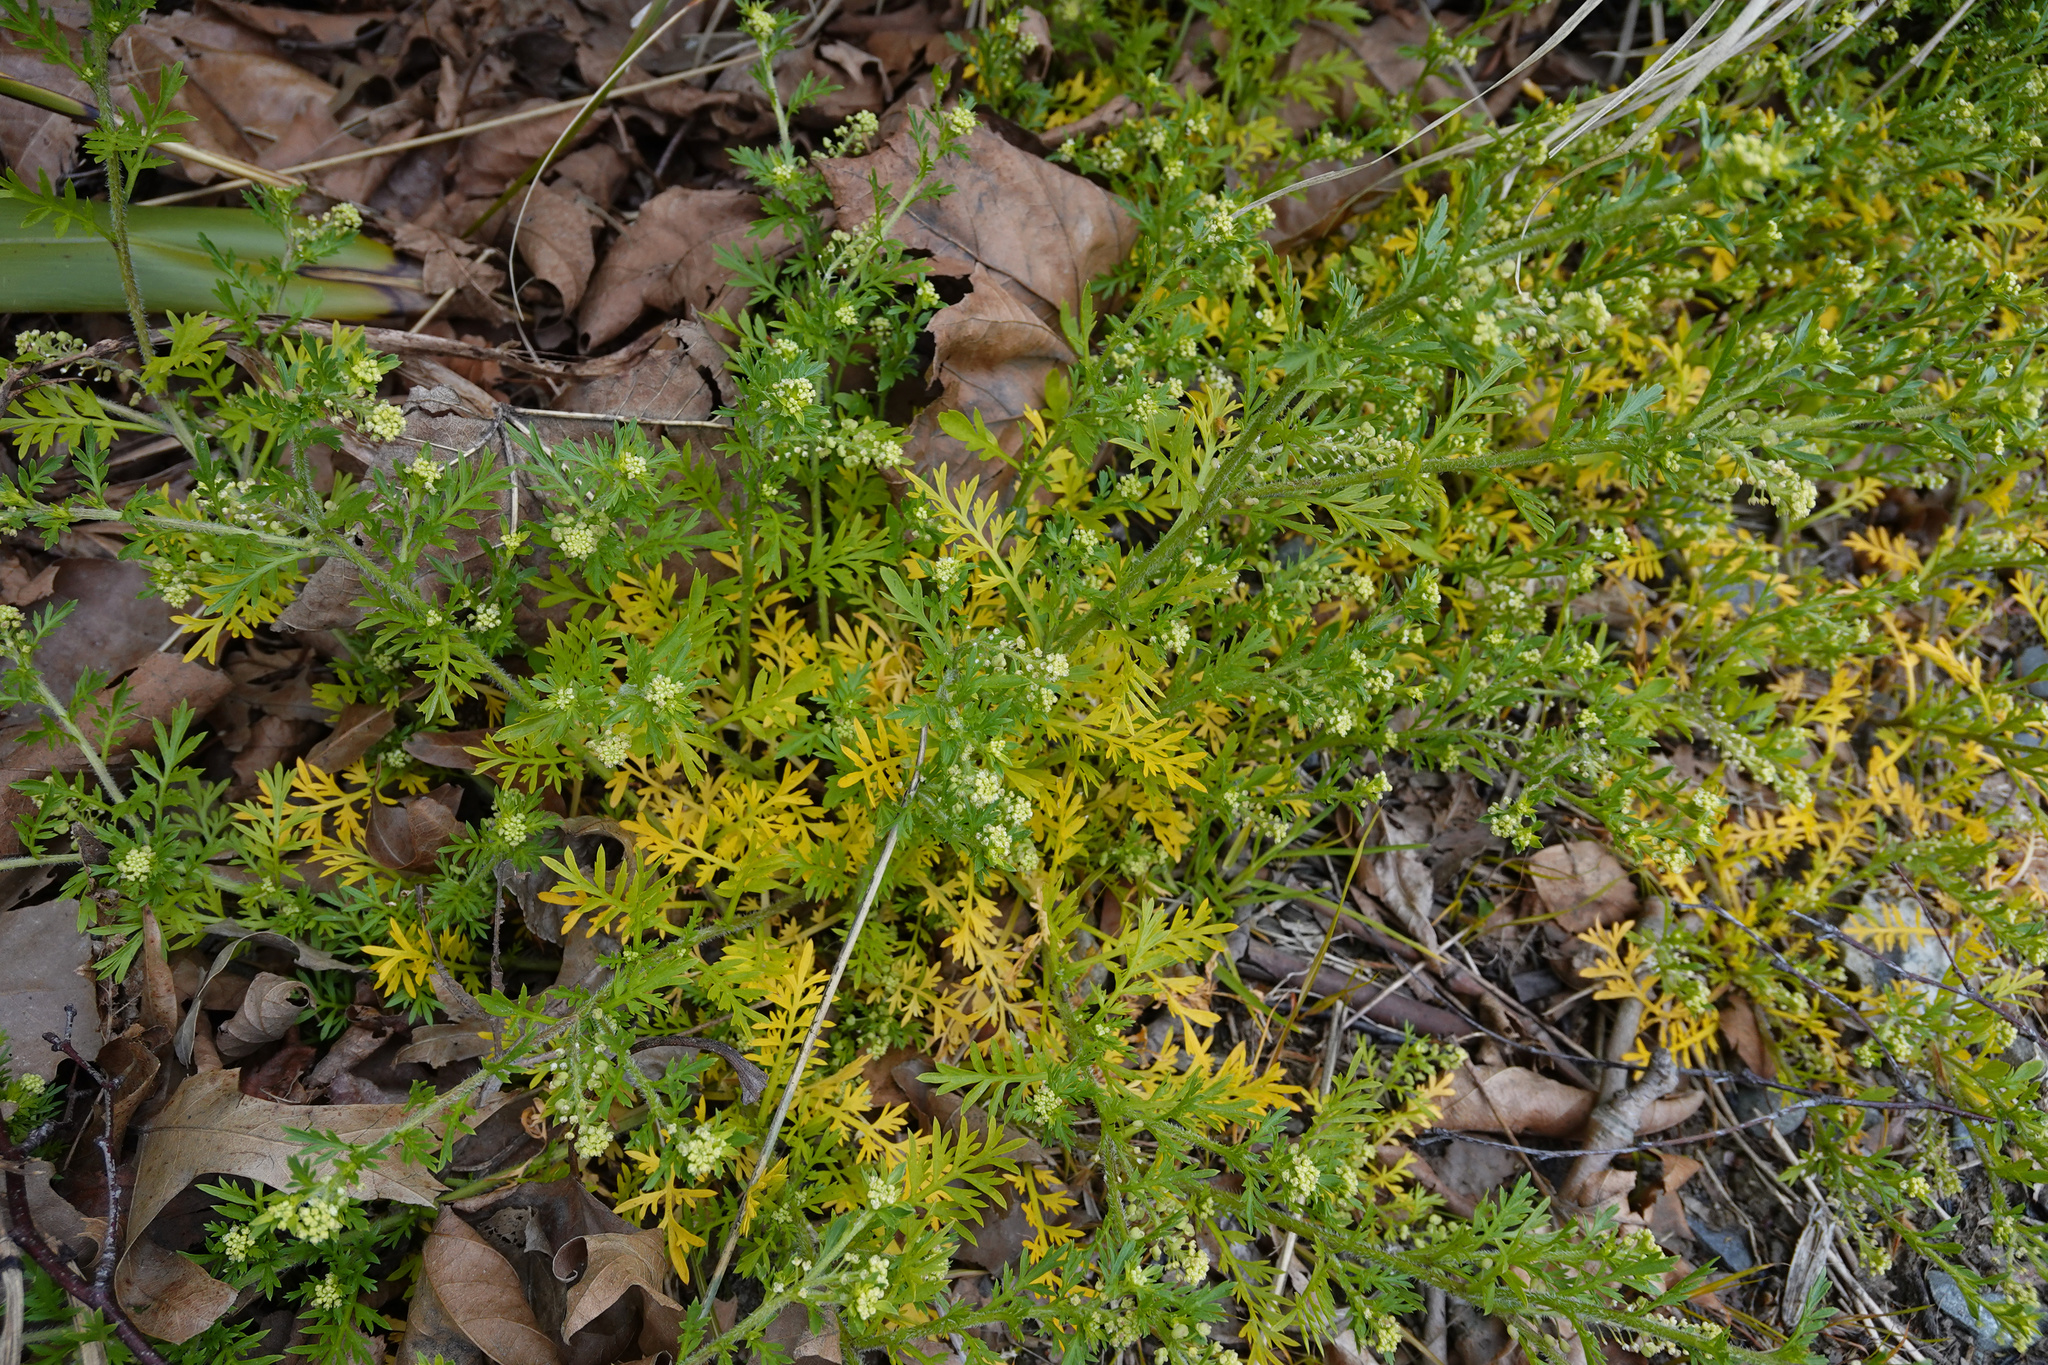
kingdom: Plantae
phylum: Tracheophyta
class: Magnoliopsida
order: Brassicales
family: Brassicaceae
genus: Lepidium
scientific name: Lepidium didymum
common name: Lesser swinecress
